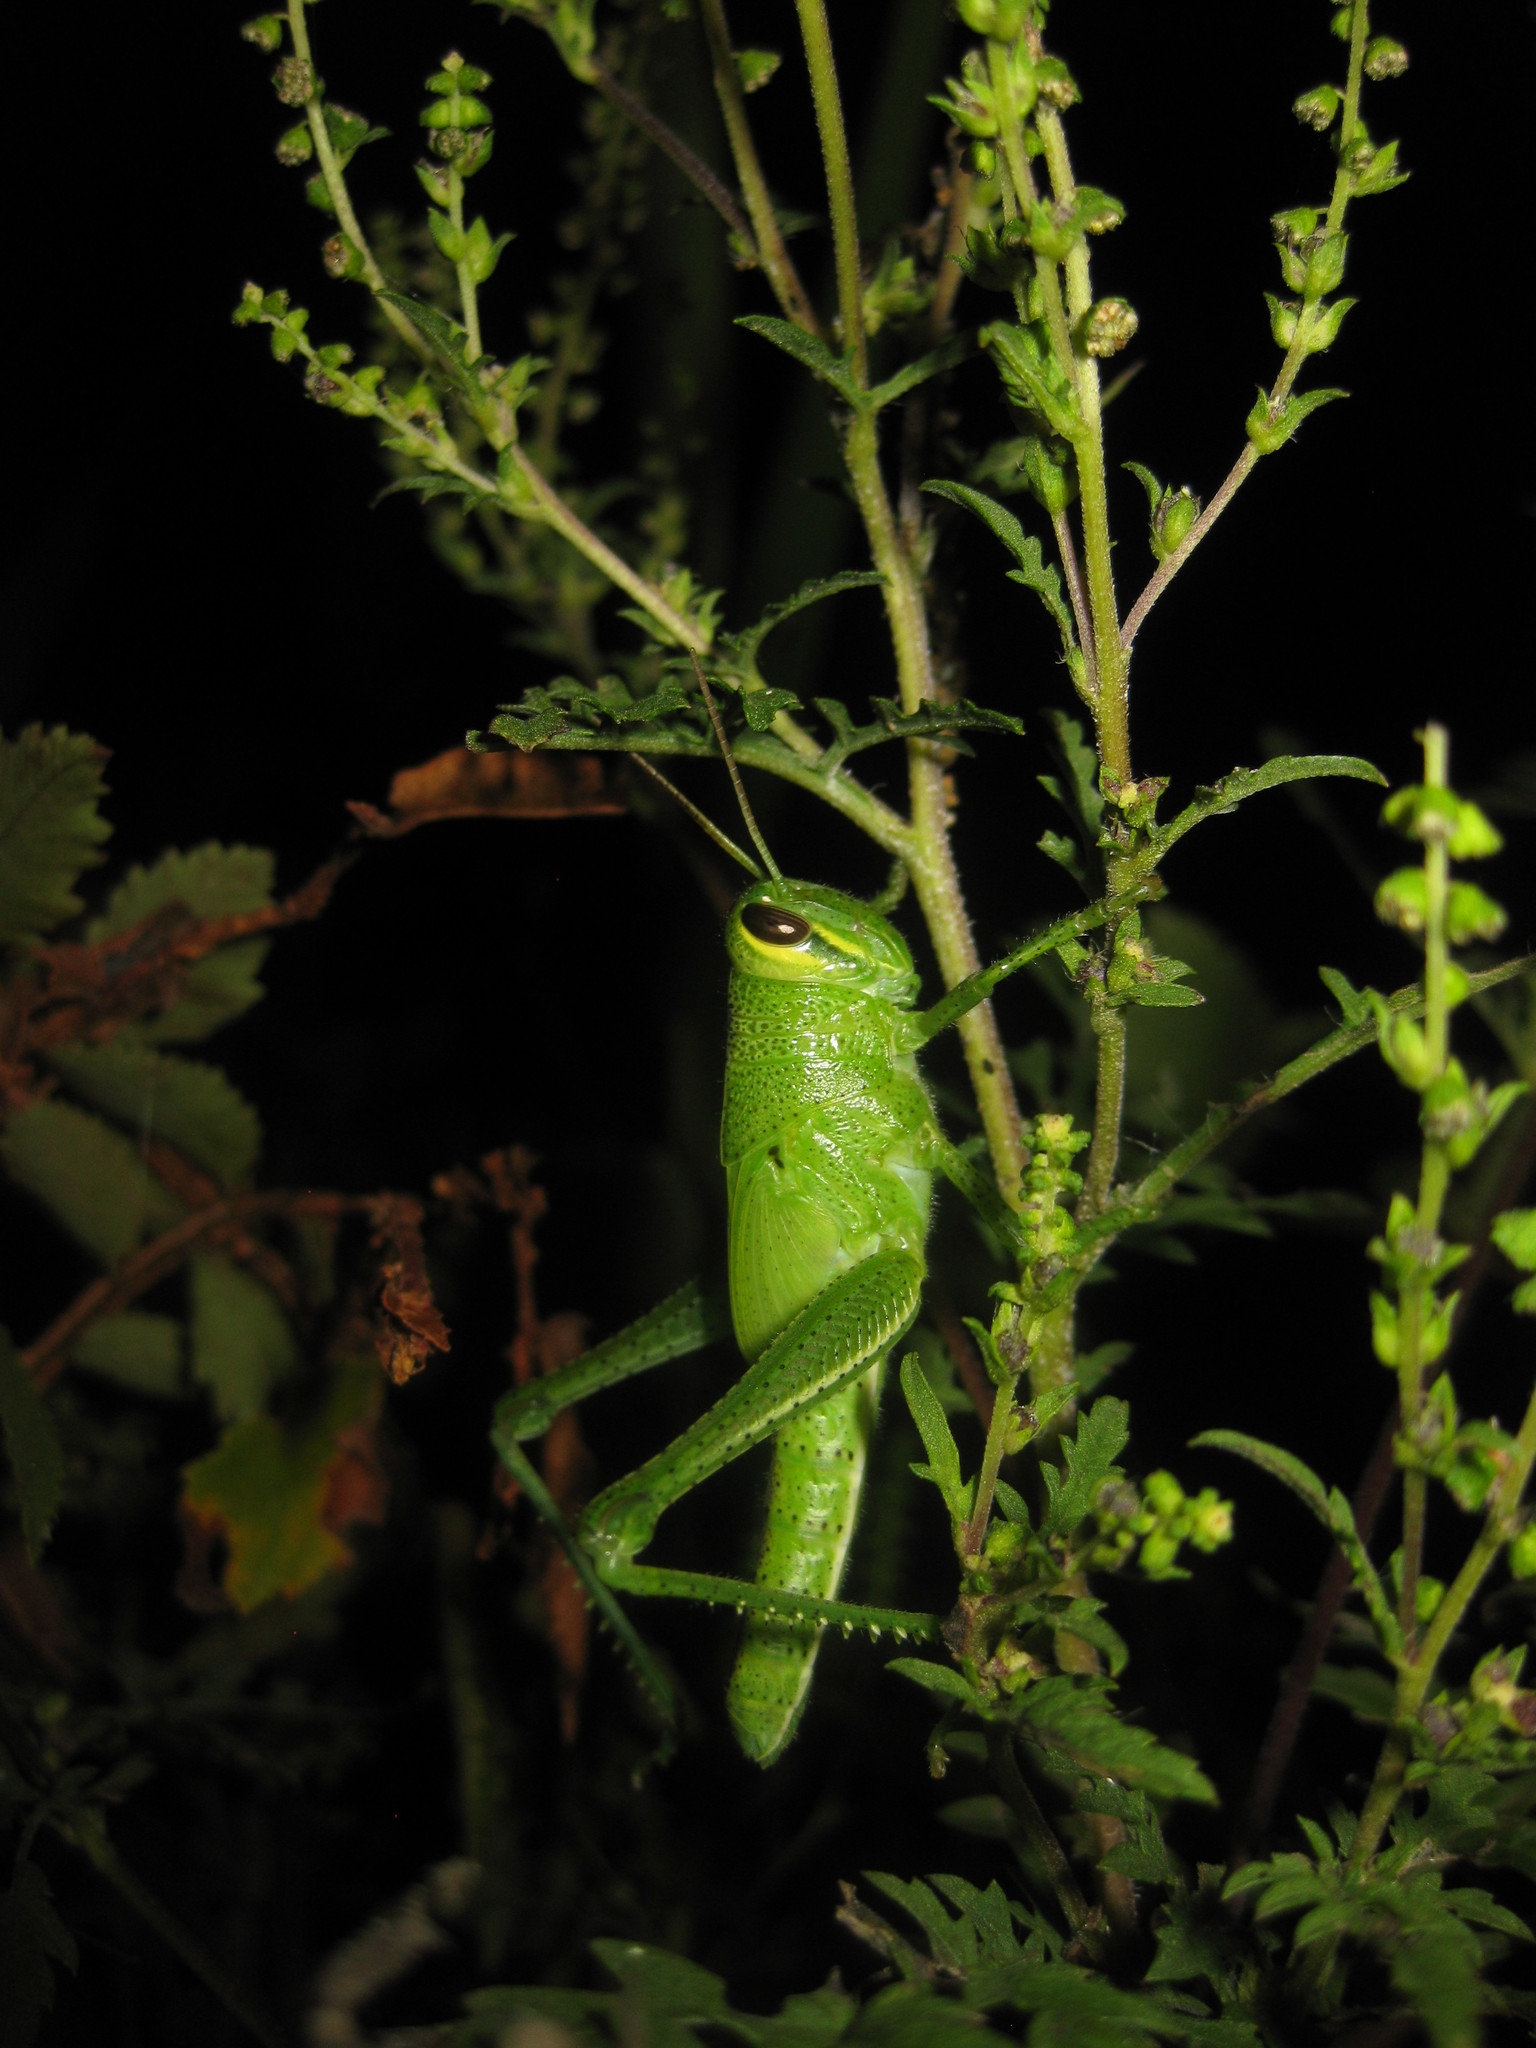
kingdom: Animalia
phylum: Arthropoda
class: Insecta
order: Orthoptera
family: Acrididae
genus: Schistocerca
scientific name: Schistocerca americana
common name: American bird locust
